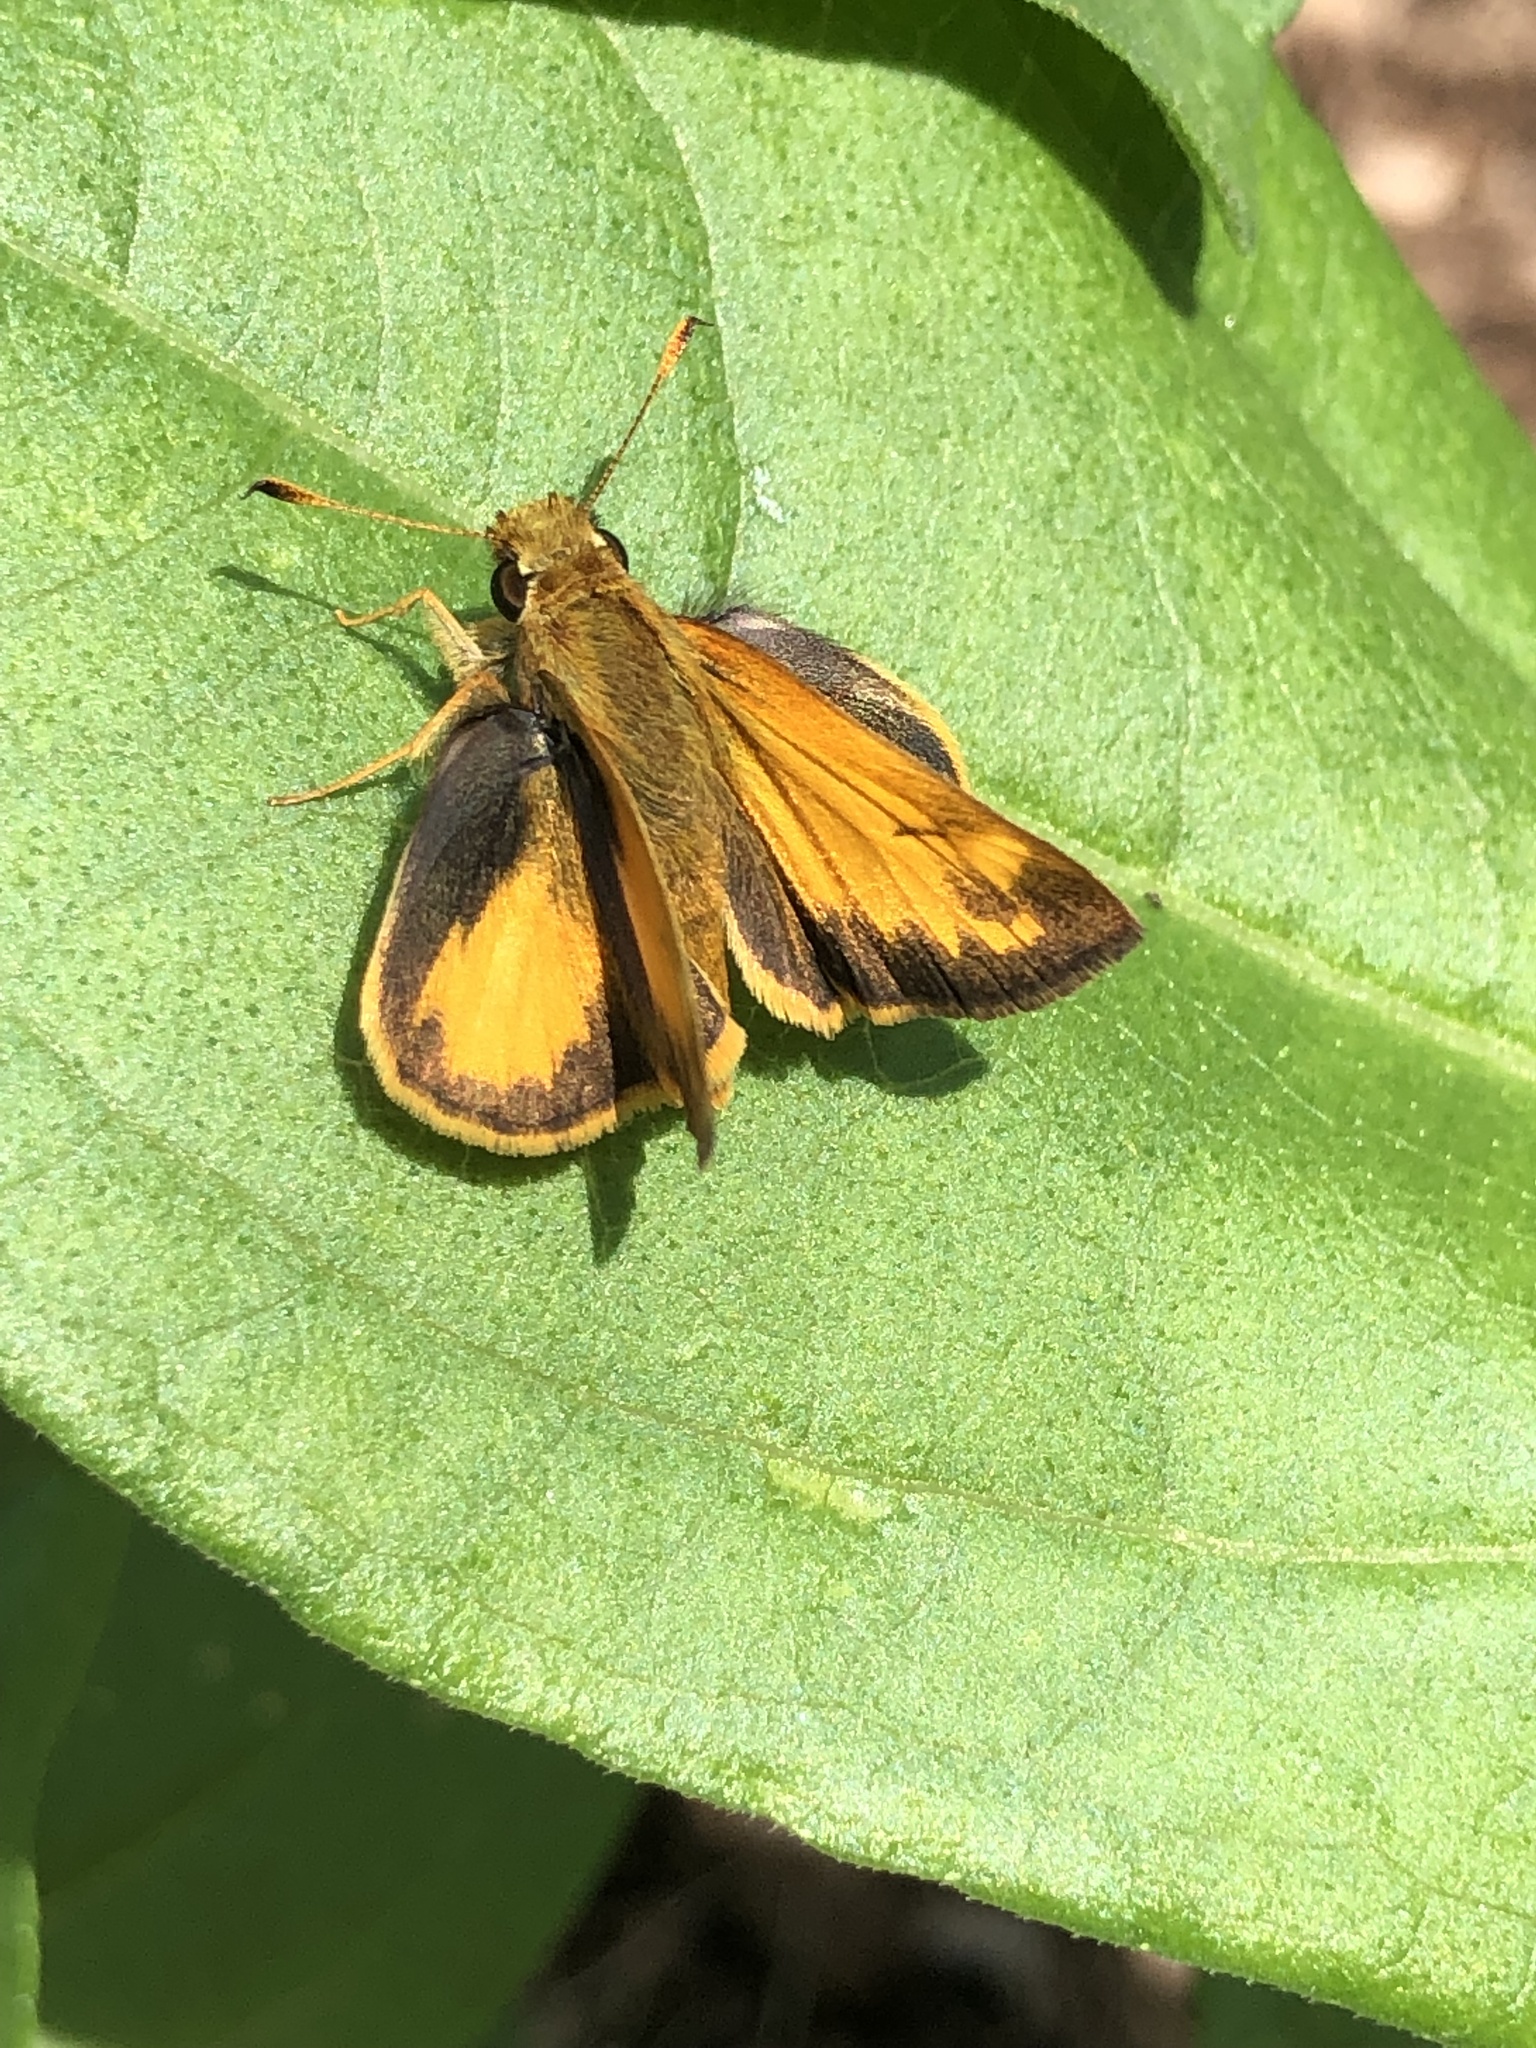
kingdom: Animalia
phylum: Arthropoda
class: Insecta
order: Lepidoptera
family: Hesperiidae
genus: Lon
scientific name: Lon zabulon
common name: Zabulon skipper
